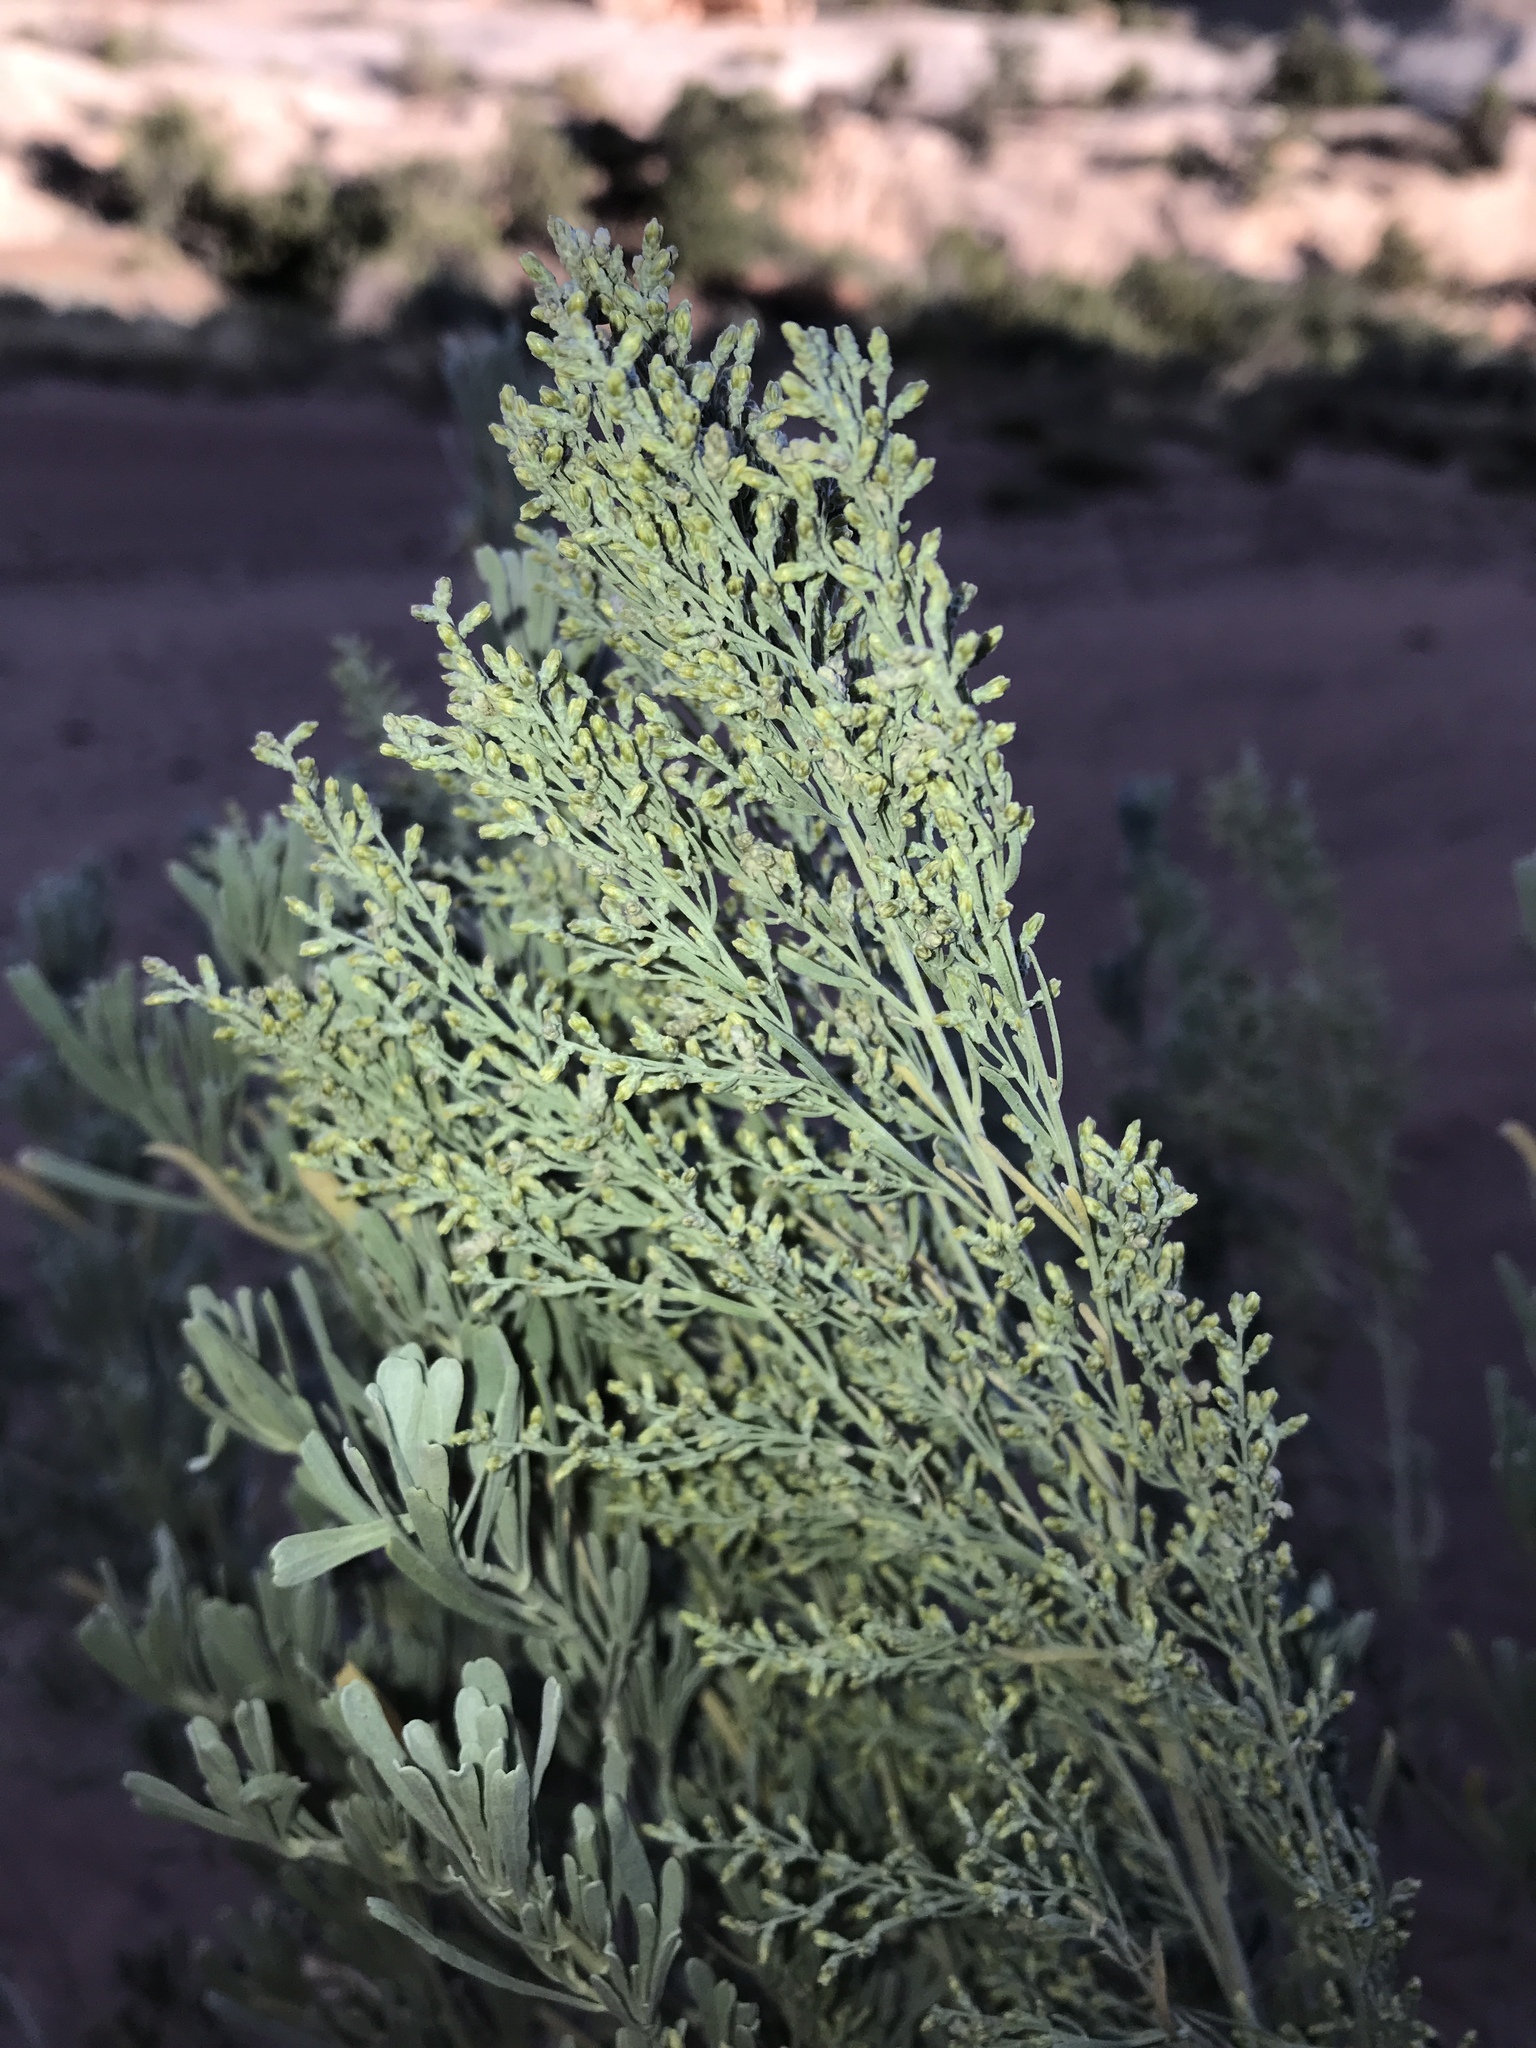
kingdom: Plantae
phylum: Tracheophyta
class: Magnoliopsida
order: Asterales
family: Asteraceae
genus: Artemisia
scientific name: Artemisia tridentata
